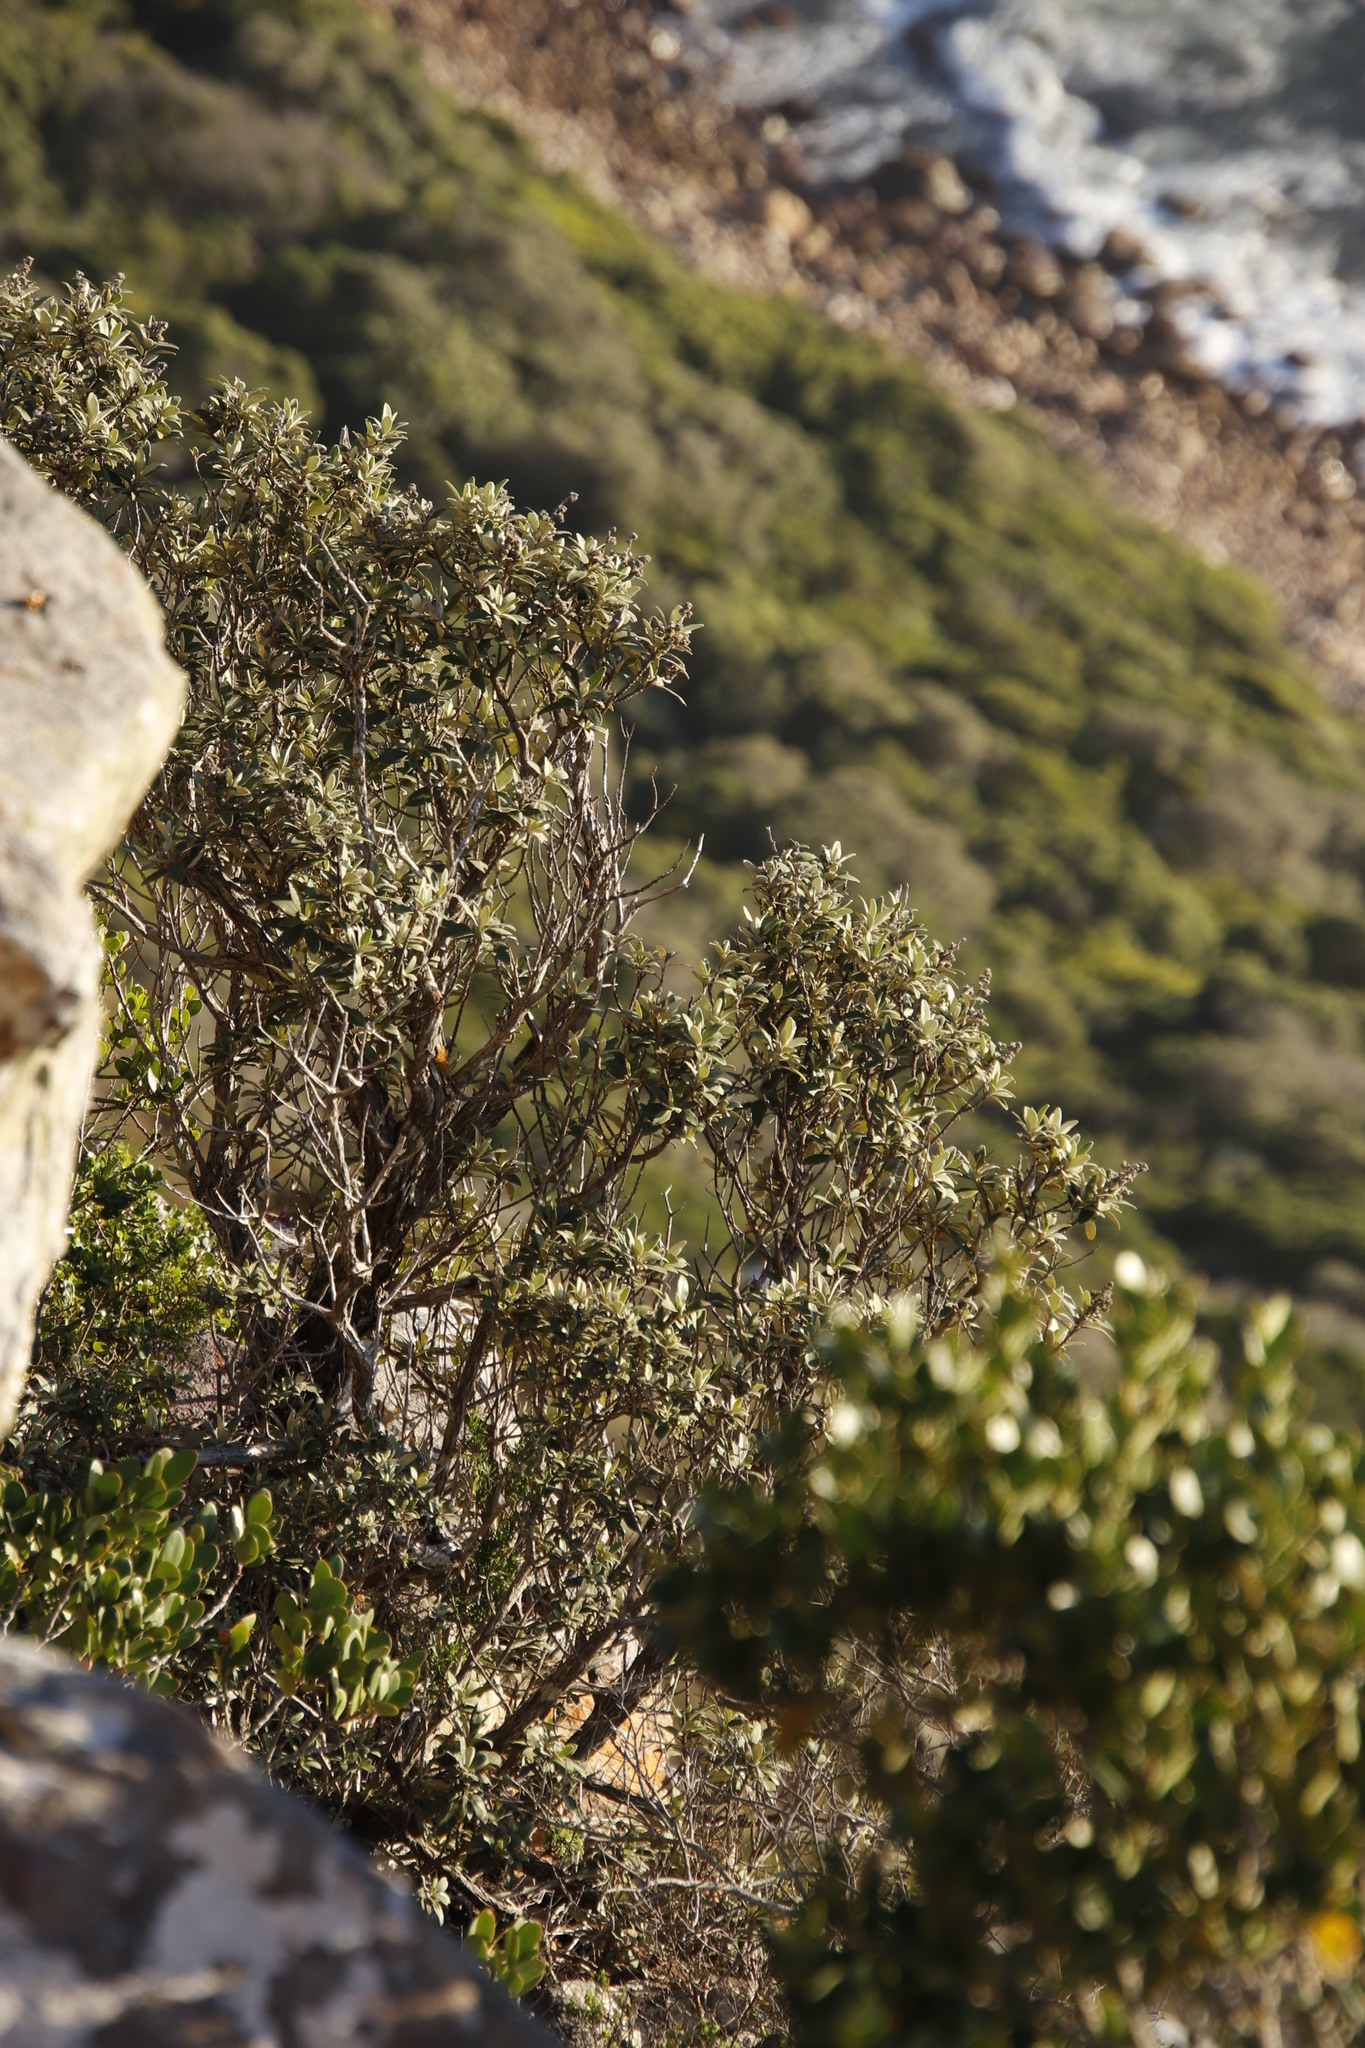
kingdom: Plantae
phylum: Tracheophyta
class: Magnoliopsida
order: Asterales
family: Asteraceae
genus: Tarchonanthus
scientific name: Tarchonanthus littoralis
